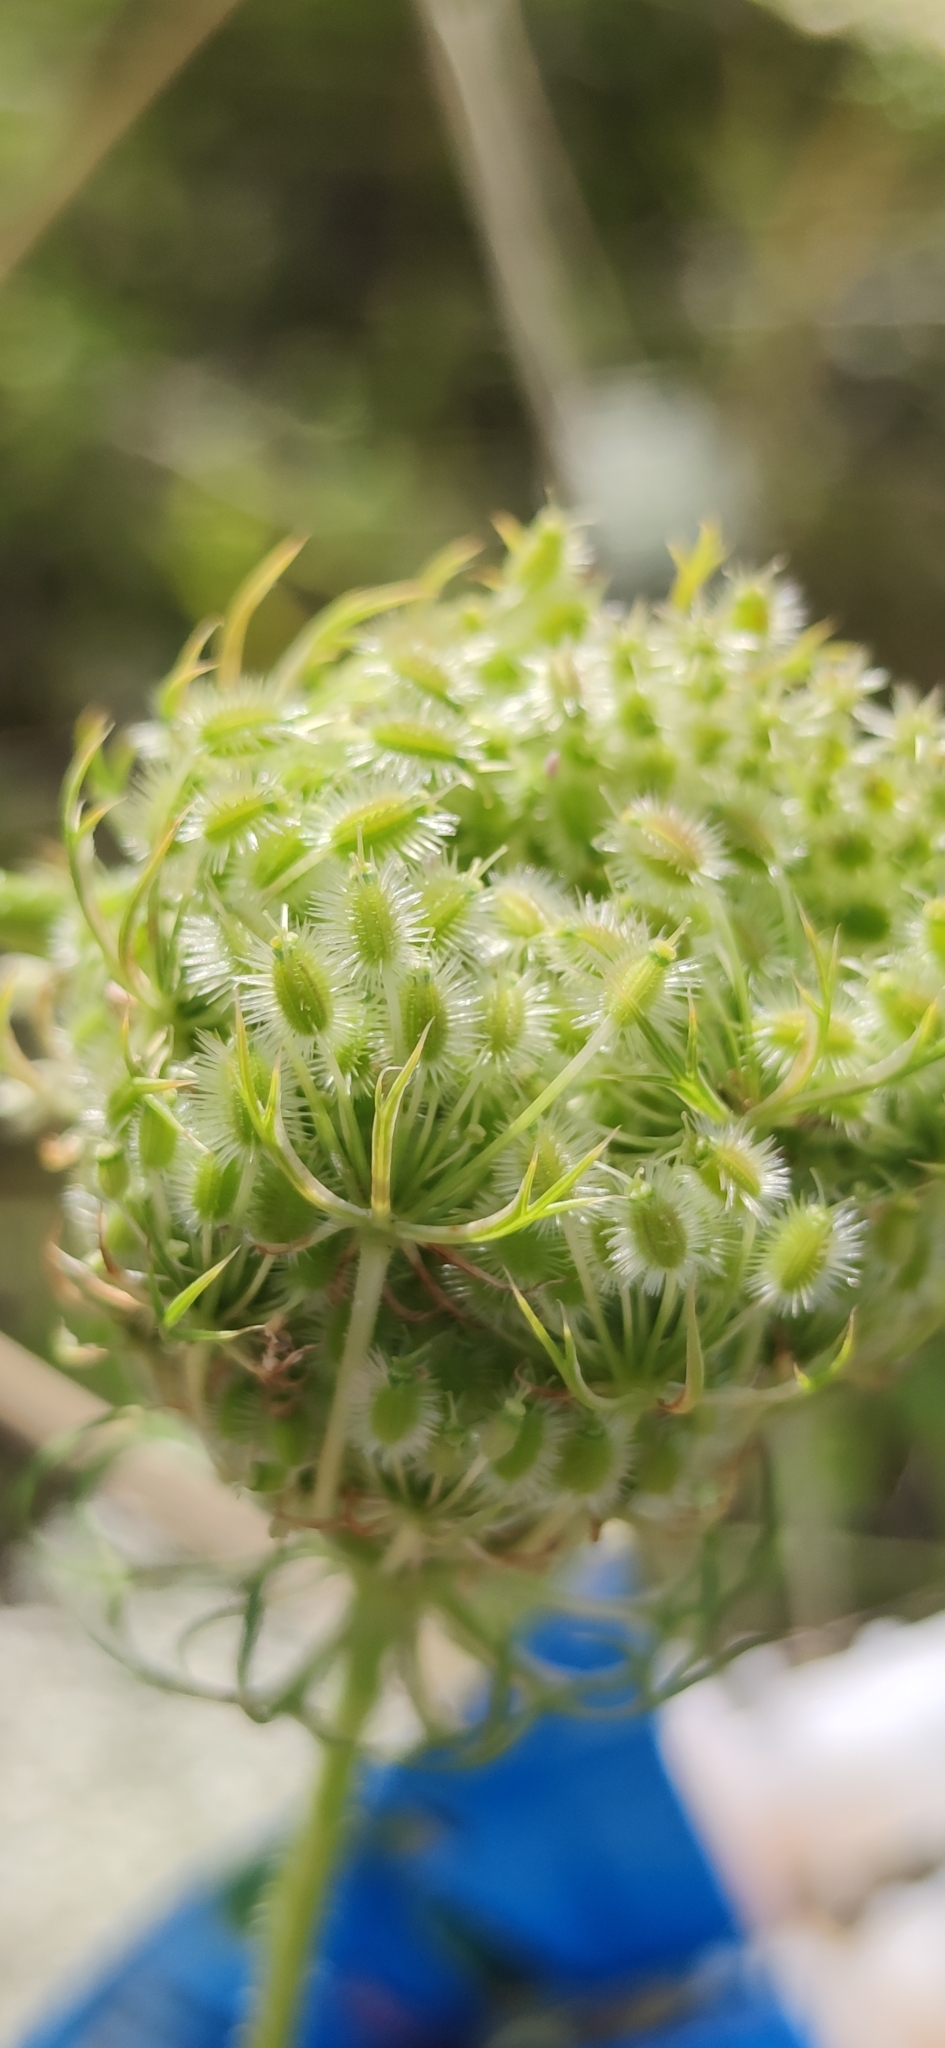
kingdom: Plantae
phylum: Tracheophyta
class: Magnoliopsida
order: Apiales
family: Apiaceae
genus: Daucus
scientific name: Daucus carota
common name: Wild carrot
